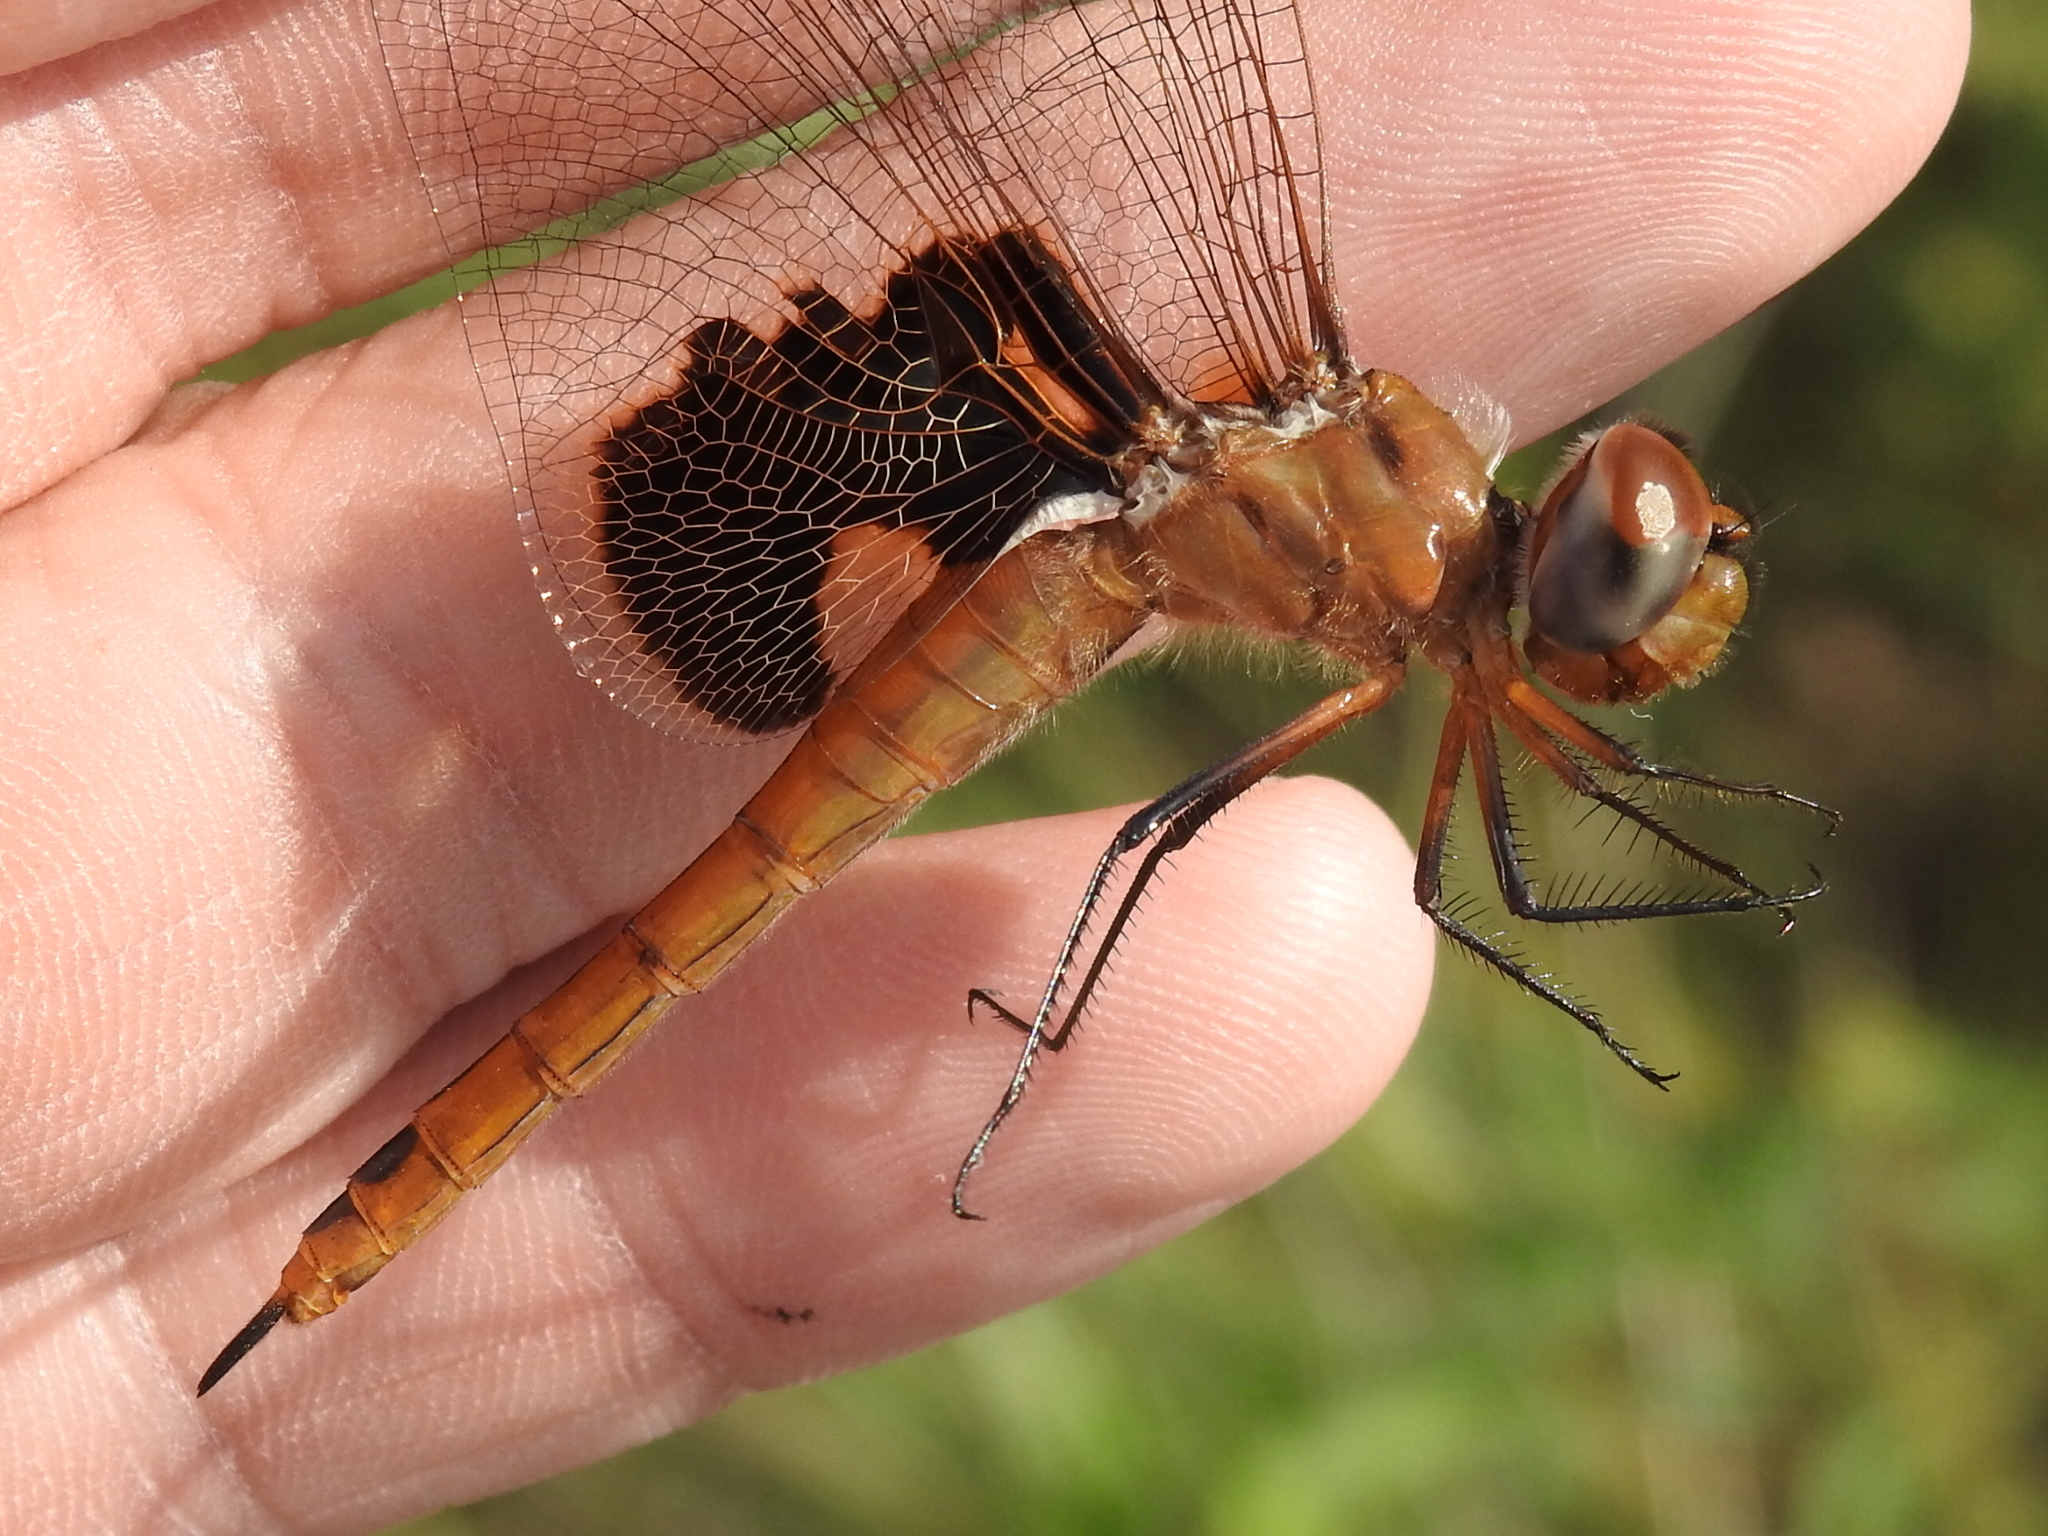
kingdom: Animalia
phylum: Arthropoda
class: Insecta
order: Odonata
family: Libellulidae
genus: Tramea
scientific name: Tramea onusta
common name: Red saddlebags
